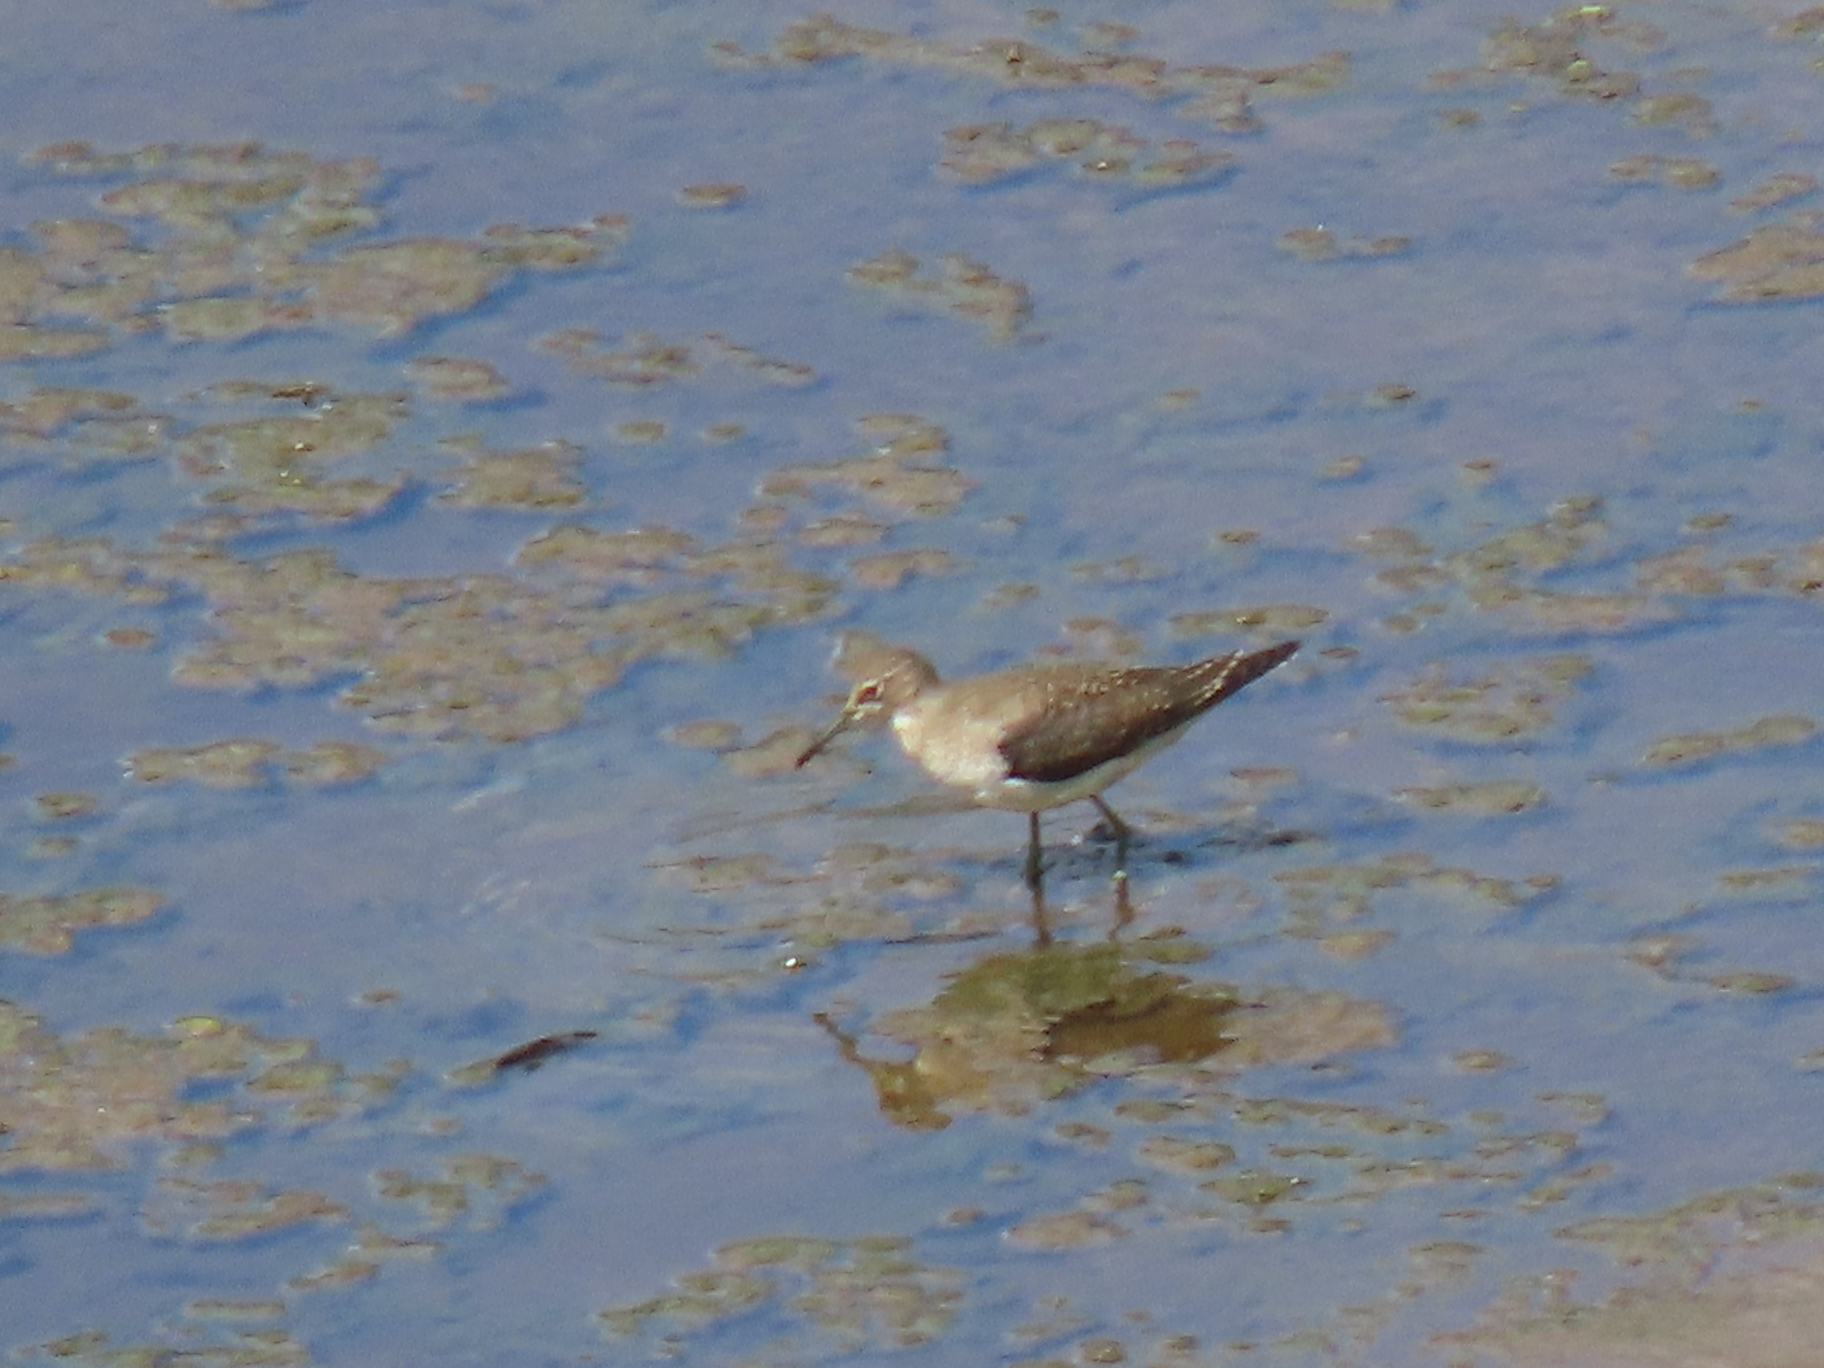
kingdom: Animalia
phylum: Chordata
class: Aves
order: Charadriiformes
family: Scolopacidae
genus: Tringa
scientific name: Tringa solitaria
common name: Solitary sandpiper
